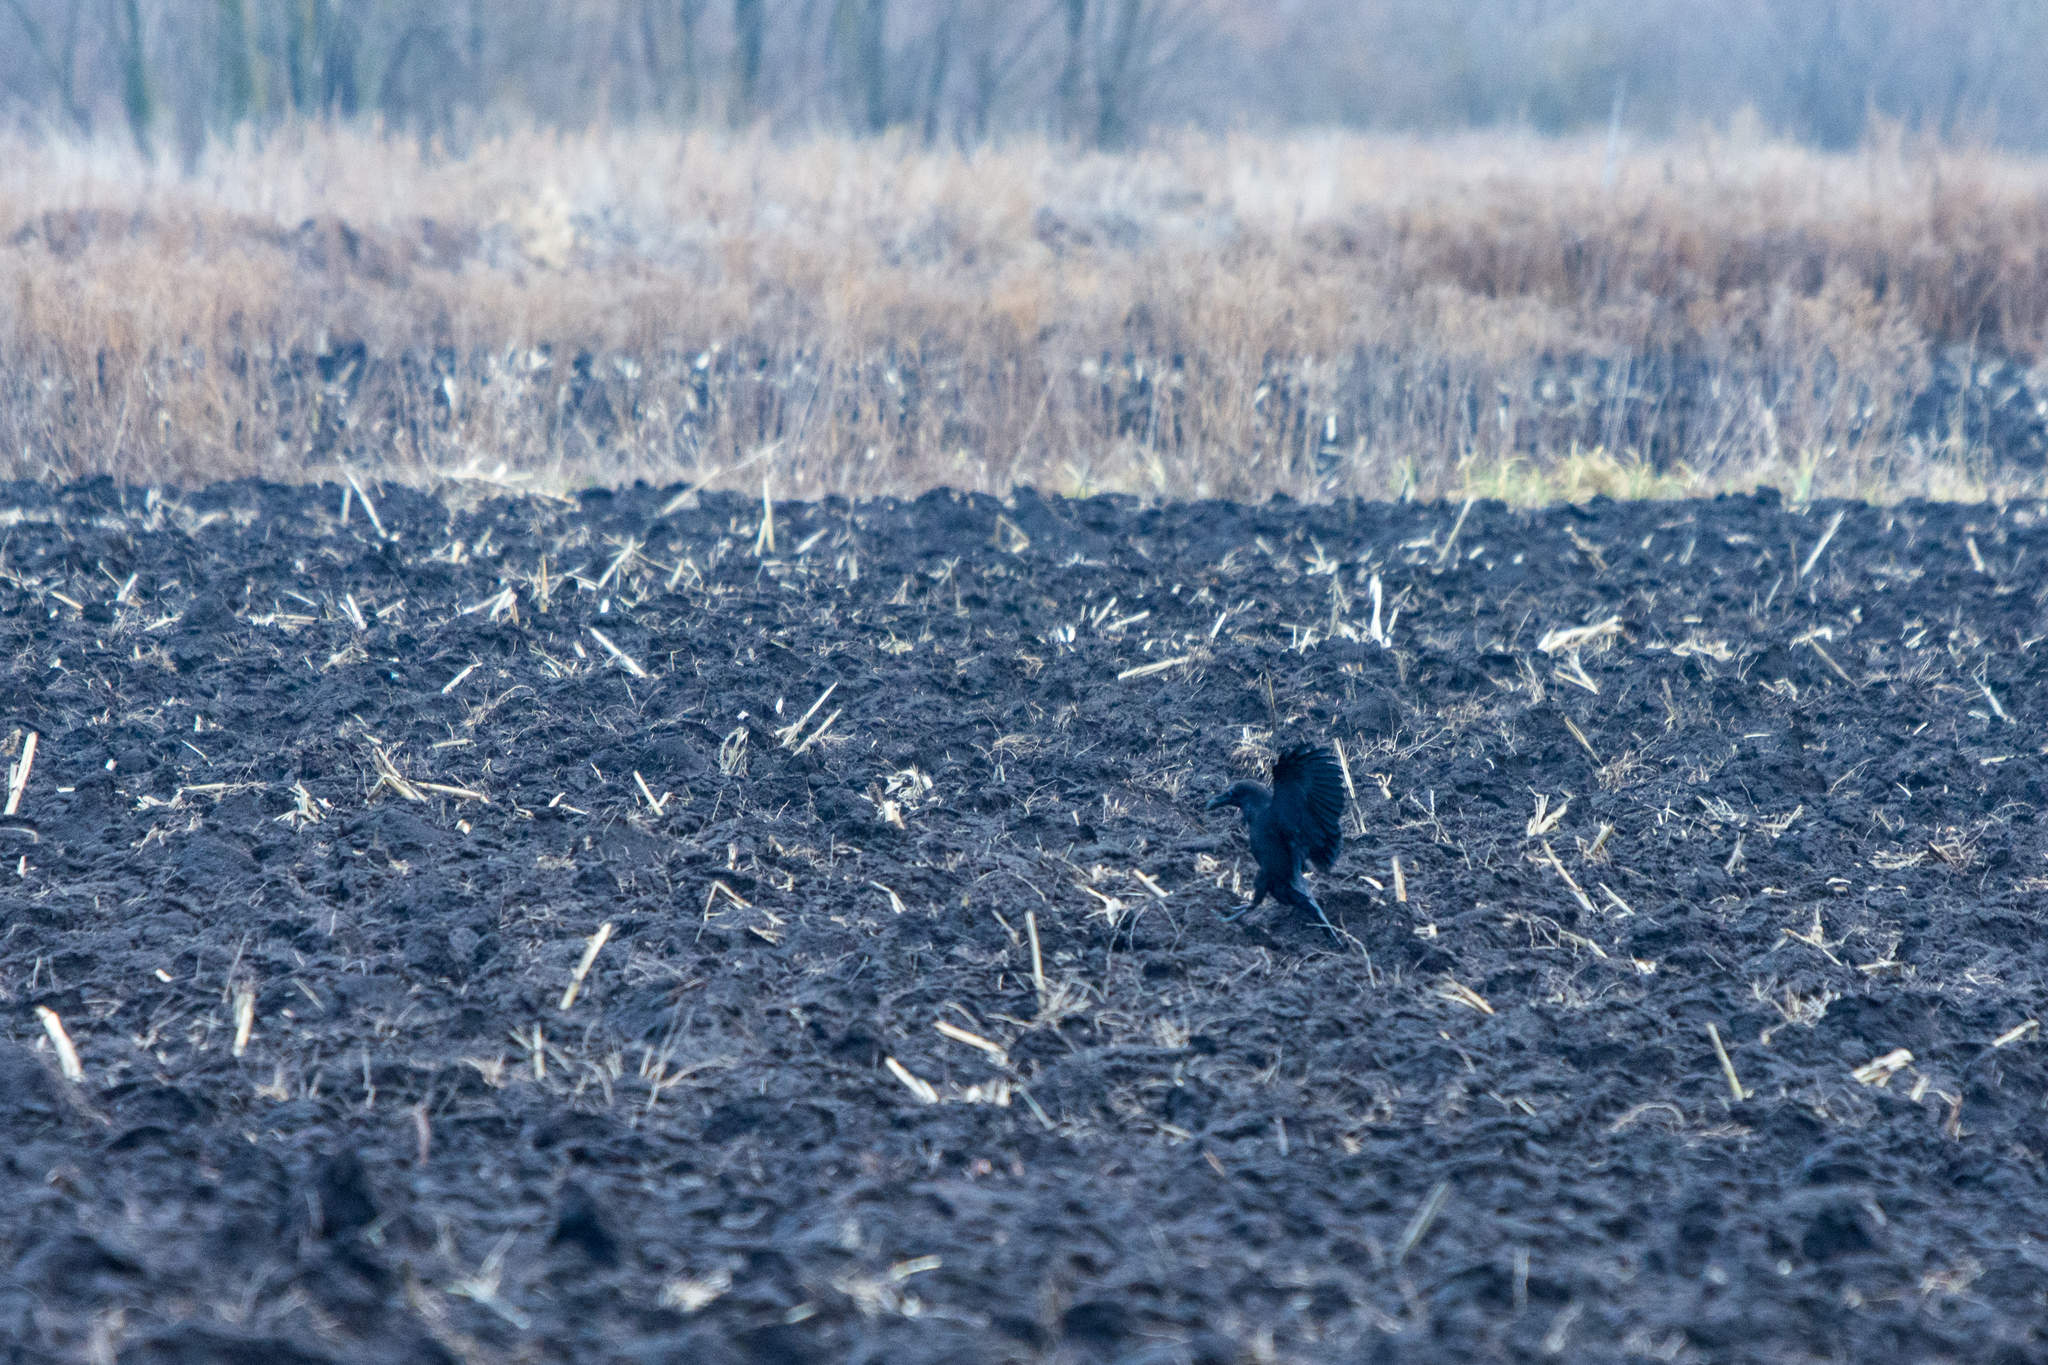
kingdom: Animalia
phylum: Chordata
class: Aves
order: Passeriformes
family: Corvidae
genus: Corvus
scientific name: Corvus corax
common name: Common raven
